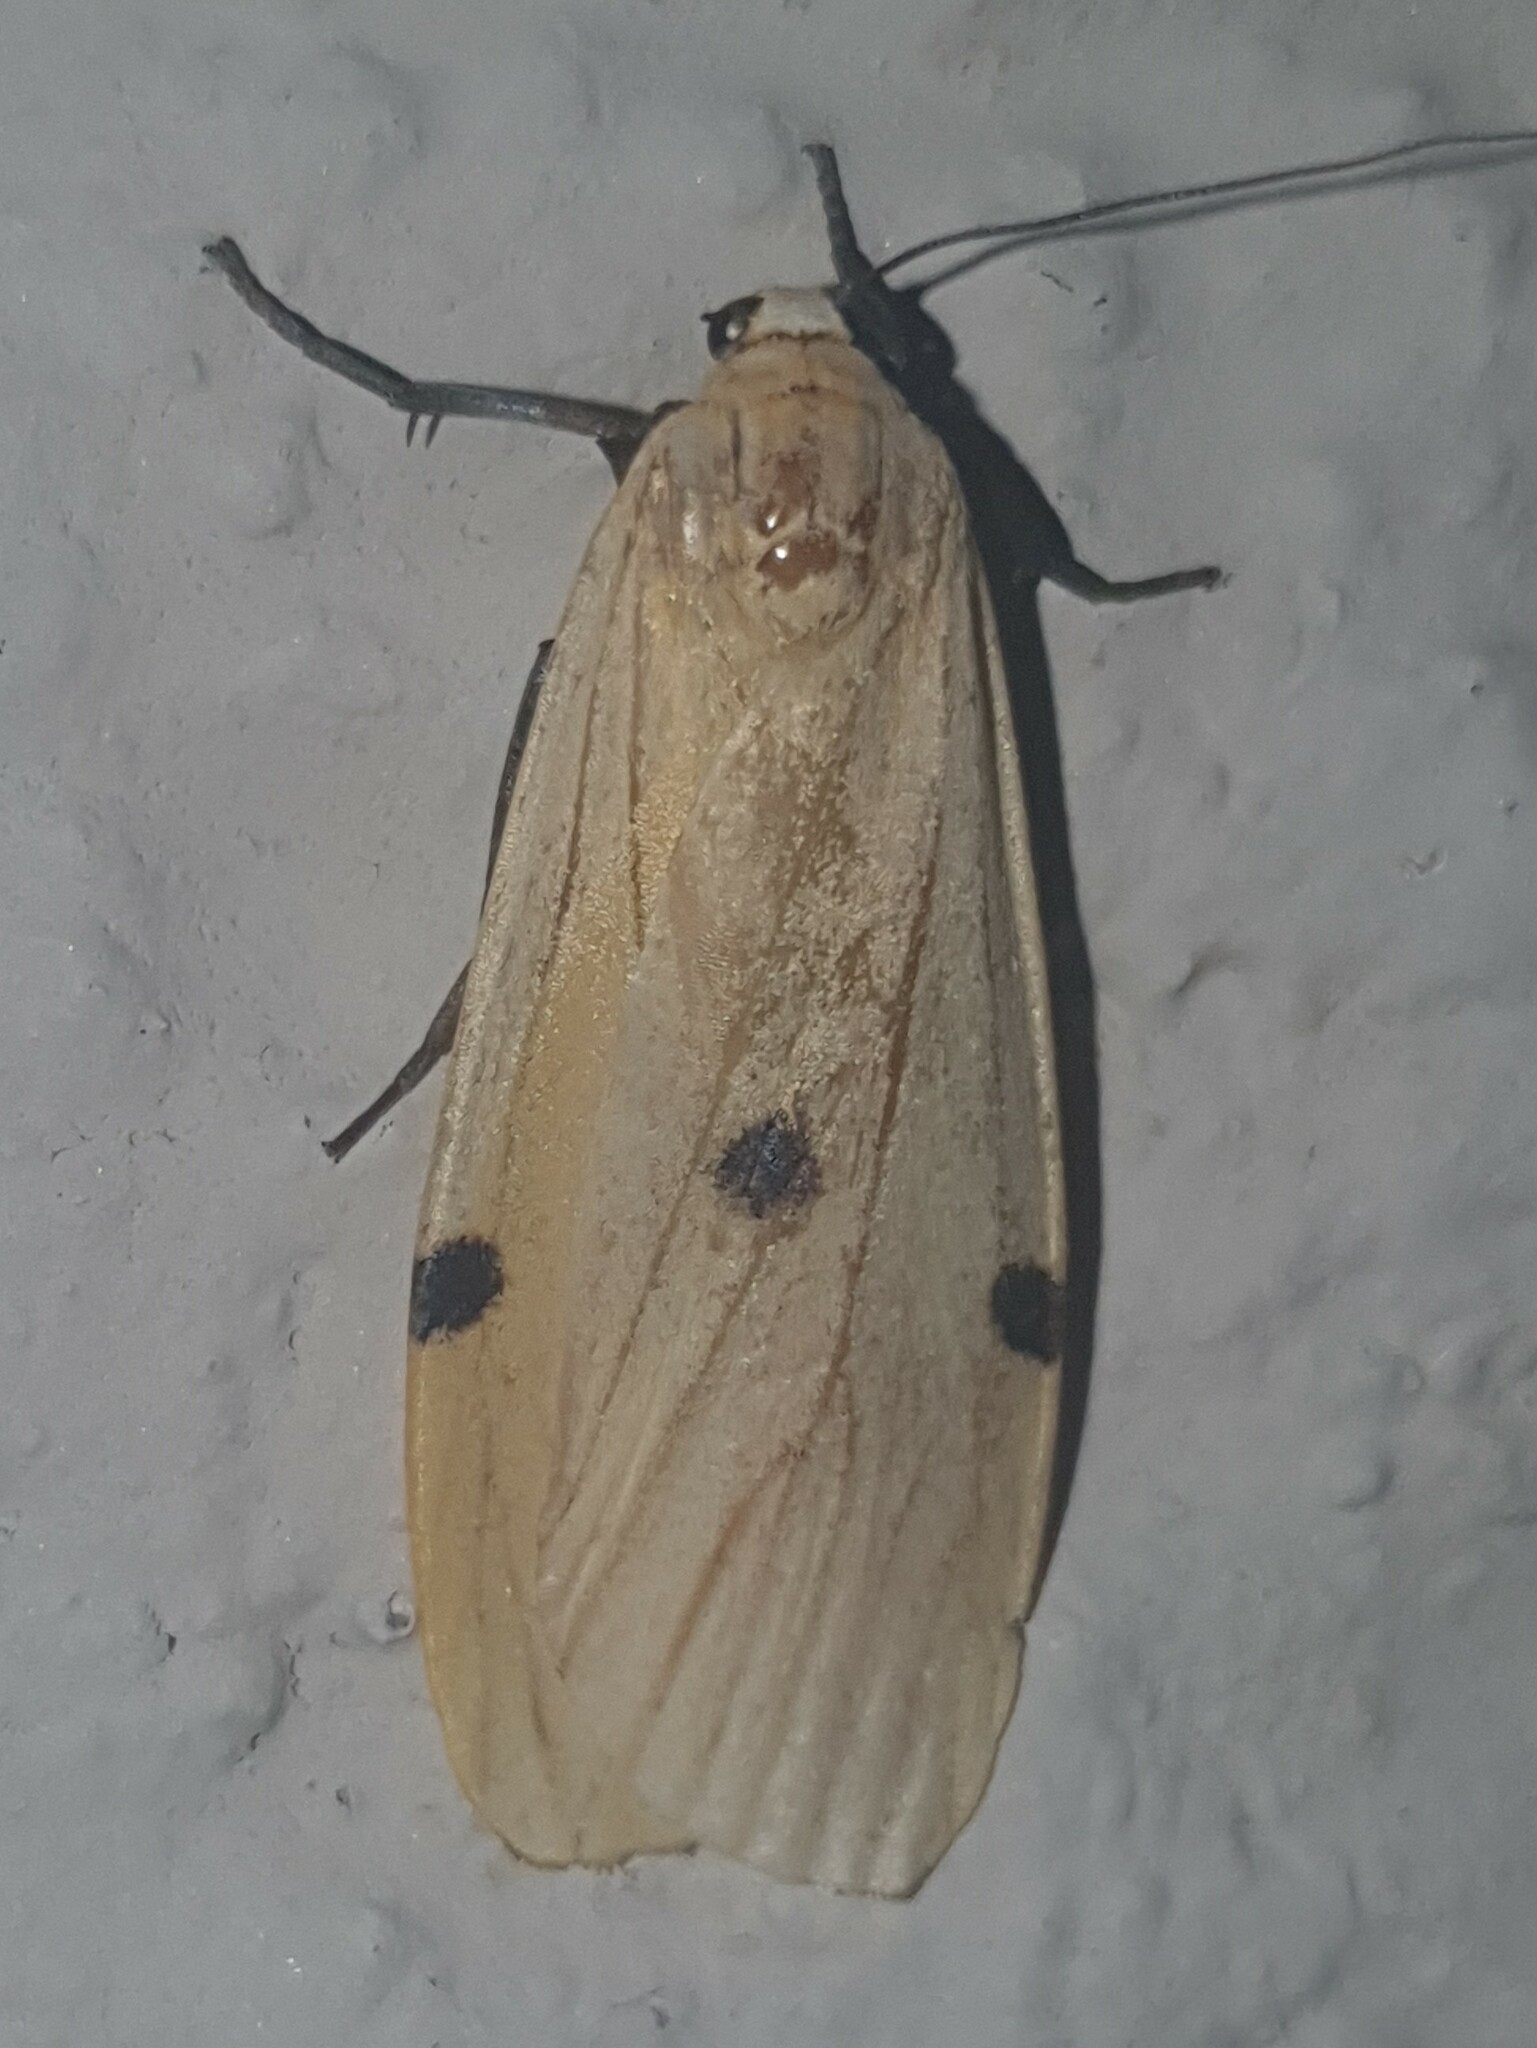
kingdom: Animalia
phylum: Arthropoda
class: Insecta
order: Lepidoptera
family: Erebidae
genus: Lithosia
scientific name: Lithosia quadra
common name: Four-spotted footman
